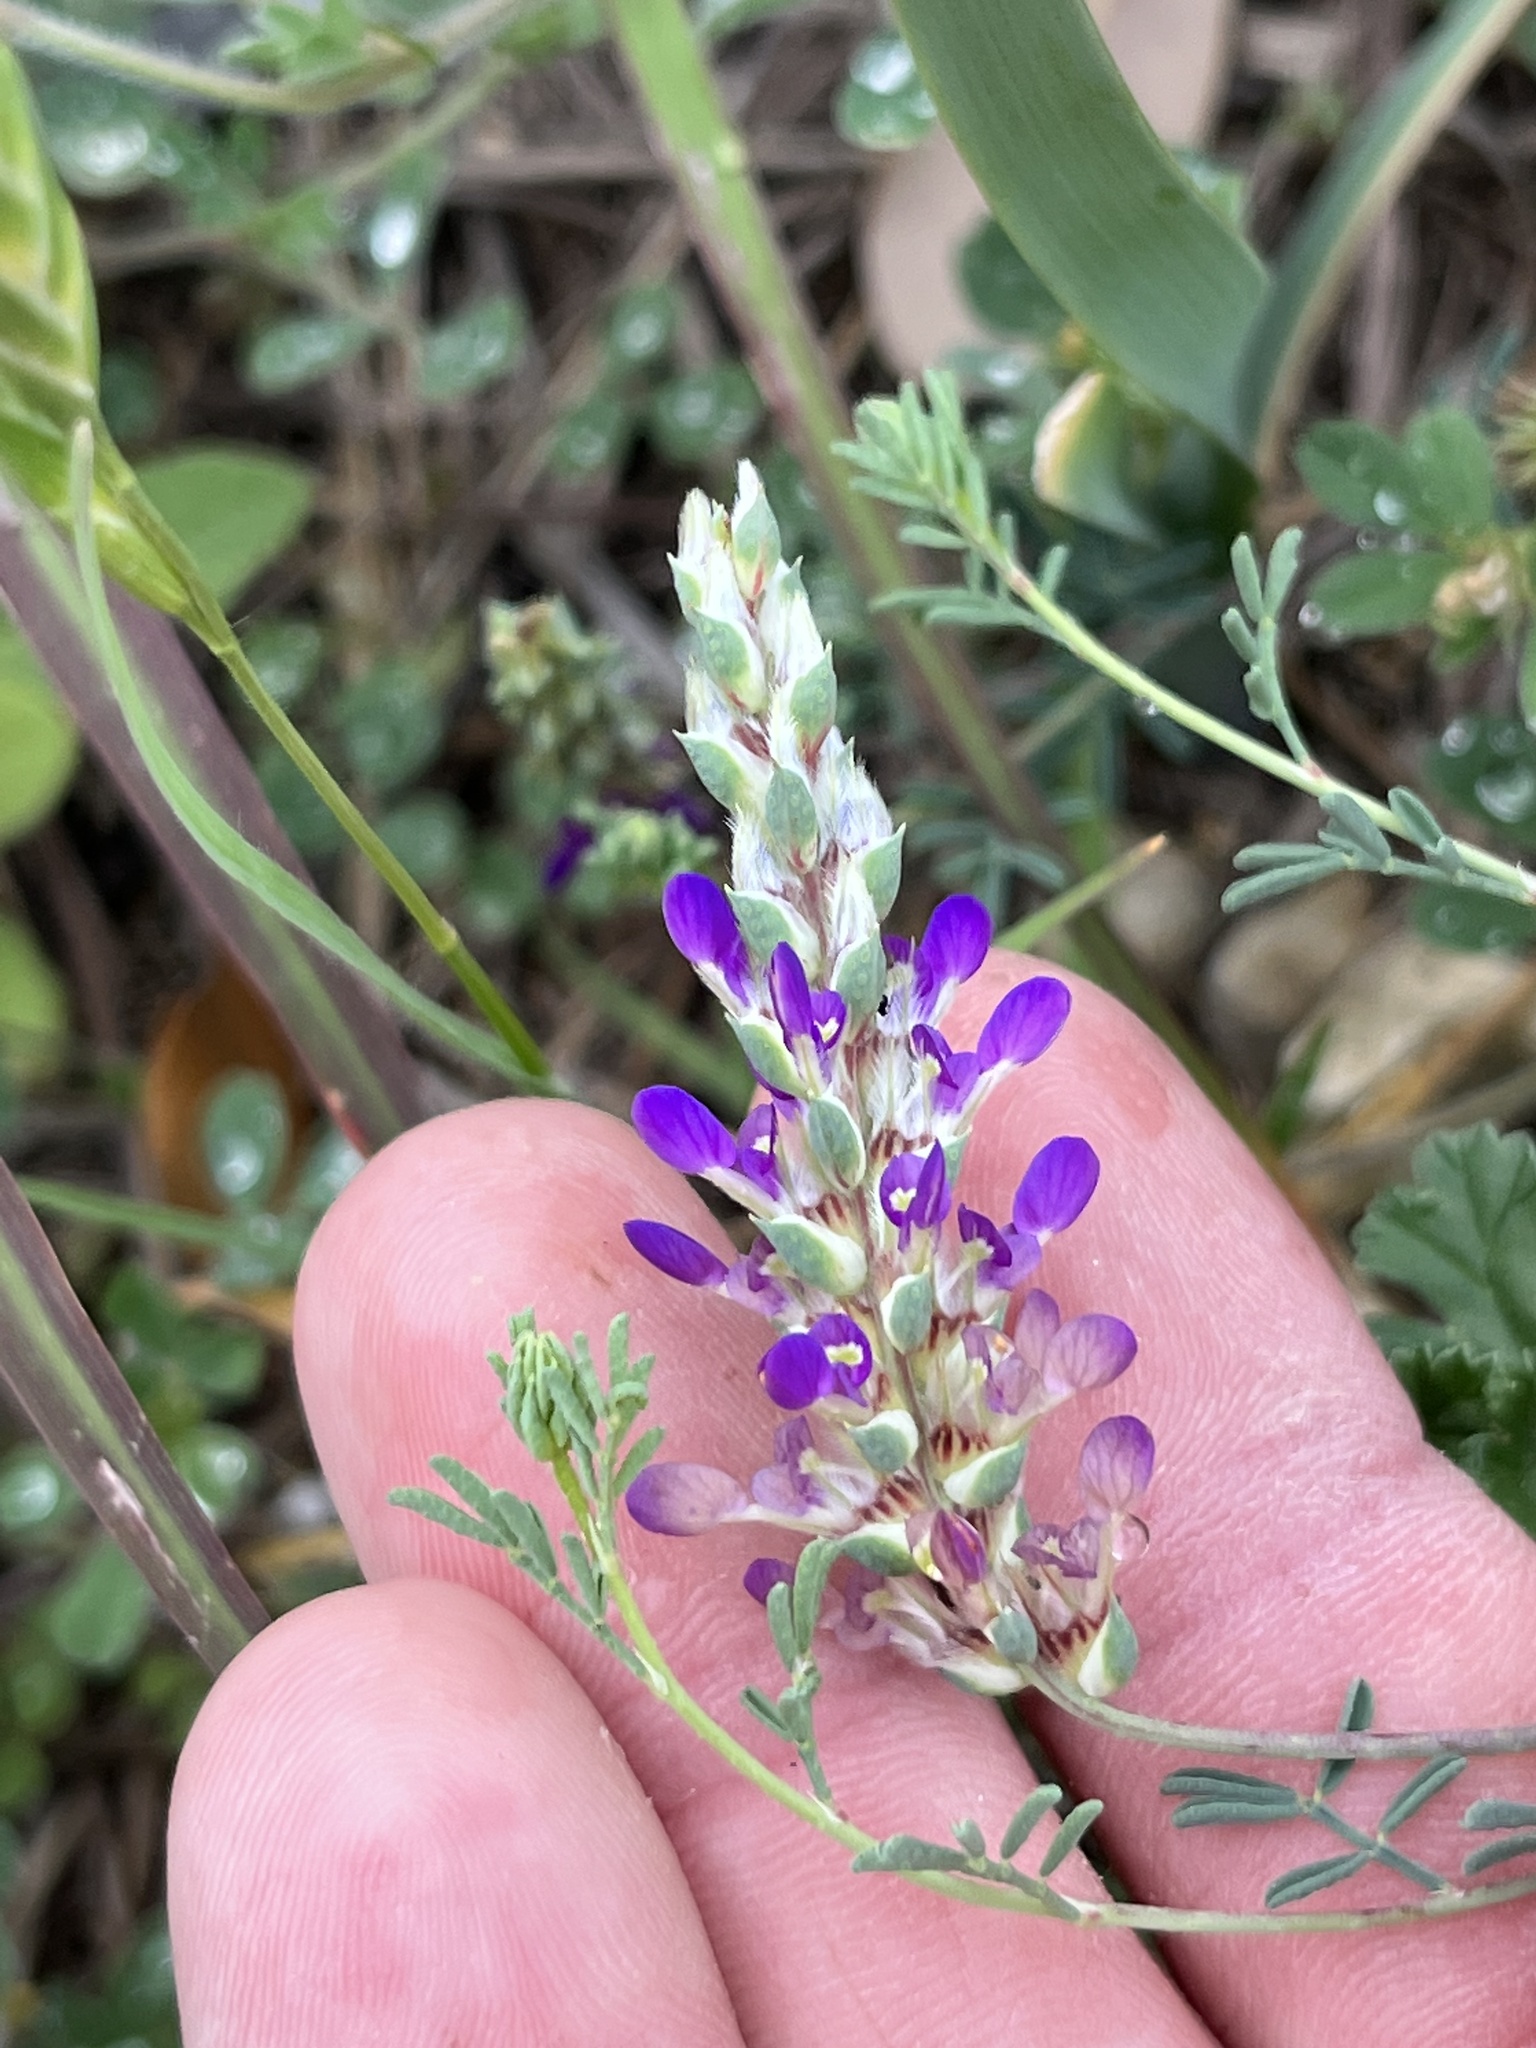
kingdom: Plantae
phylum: Tracheophyta
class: Magnoliopsida
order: Fabales
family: Fabaceae
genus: Dalea
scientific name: Dalea pogonathera
